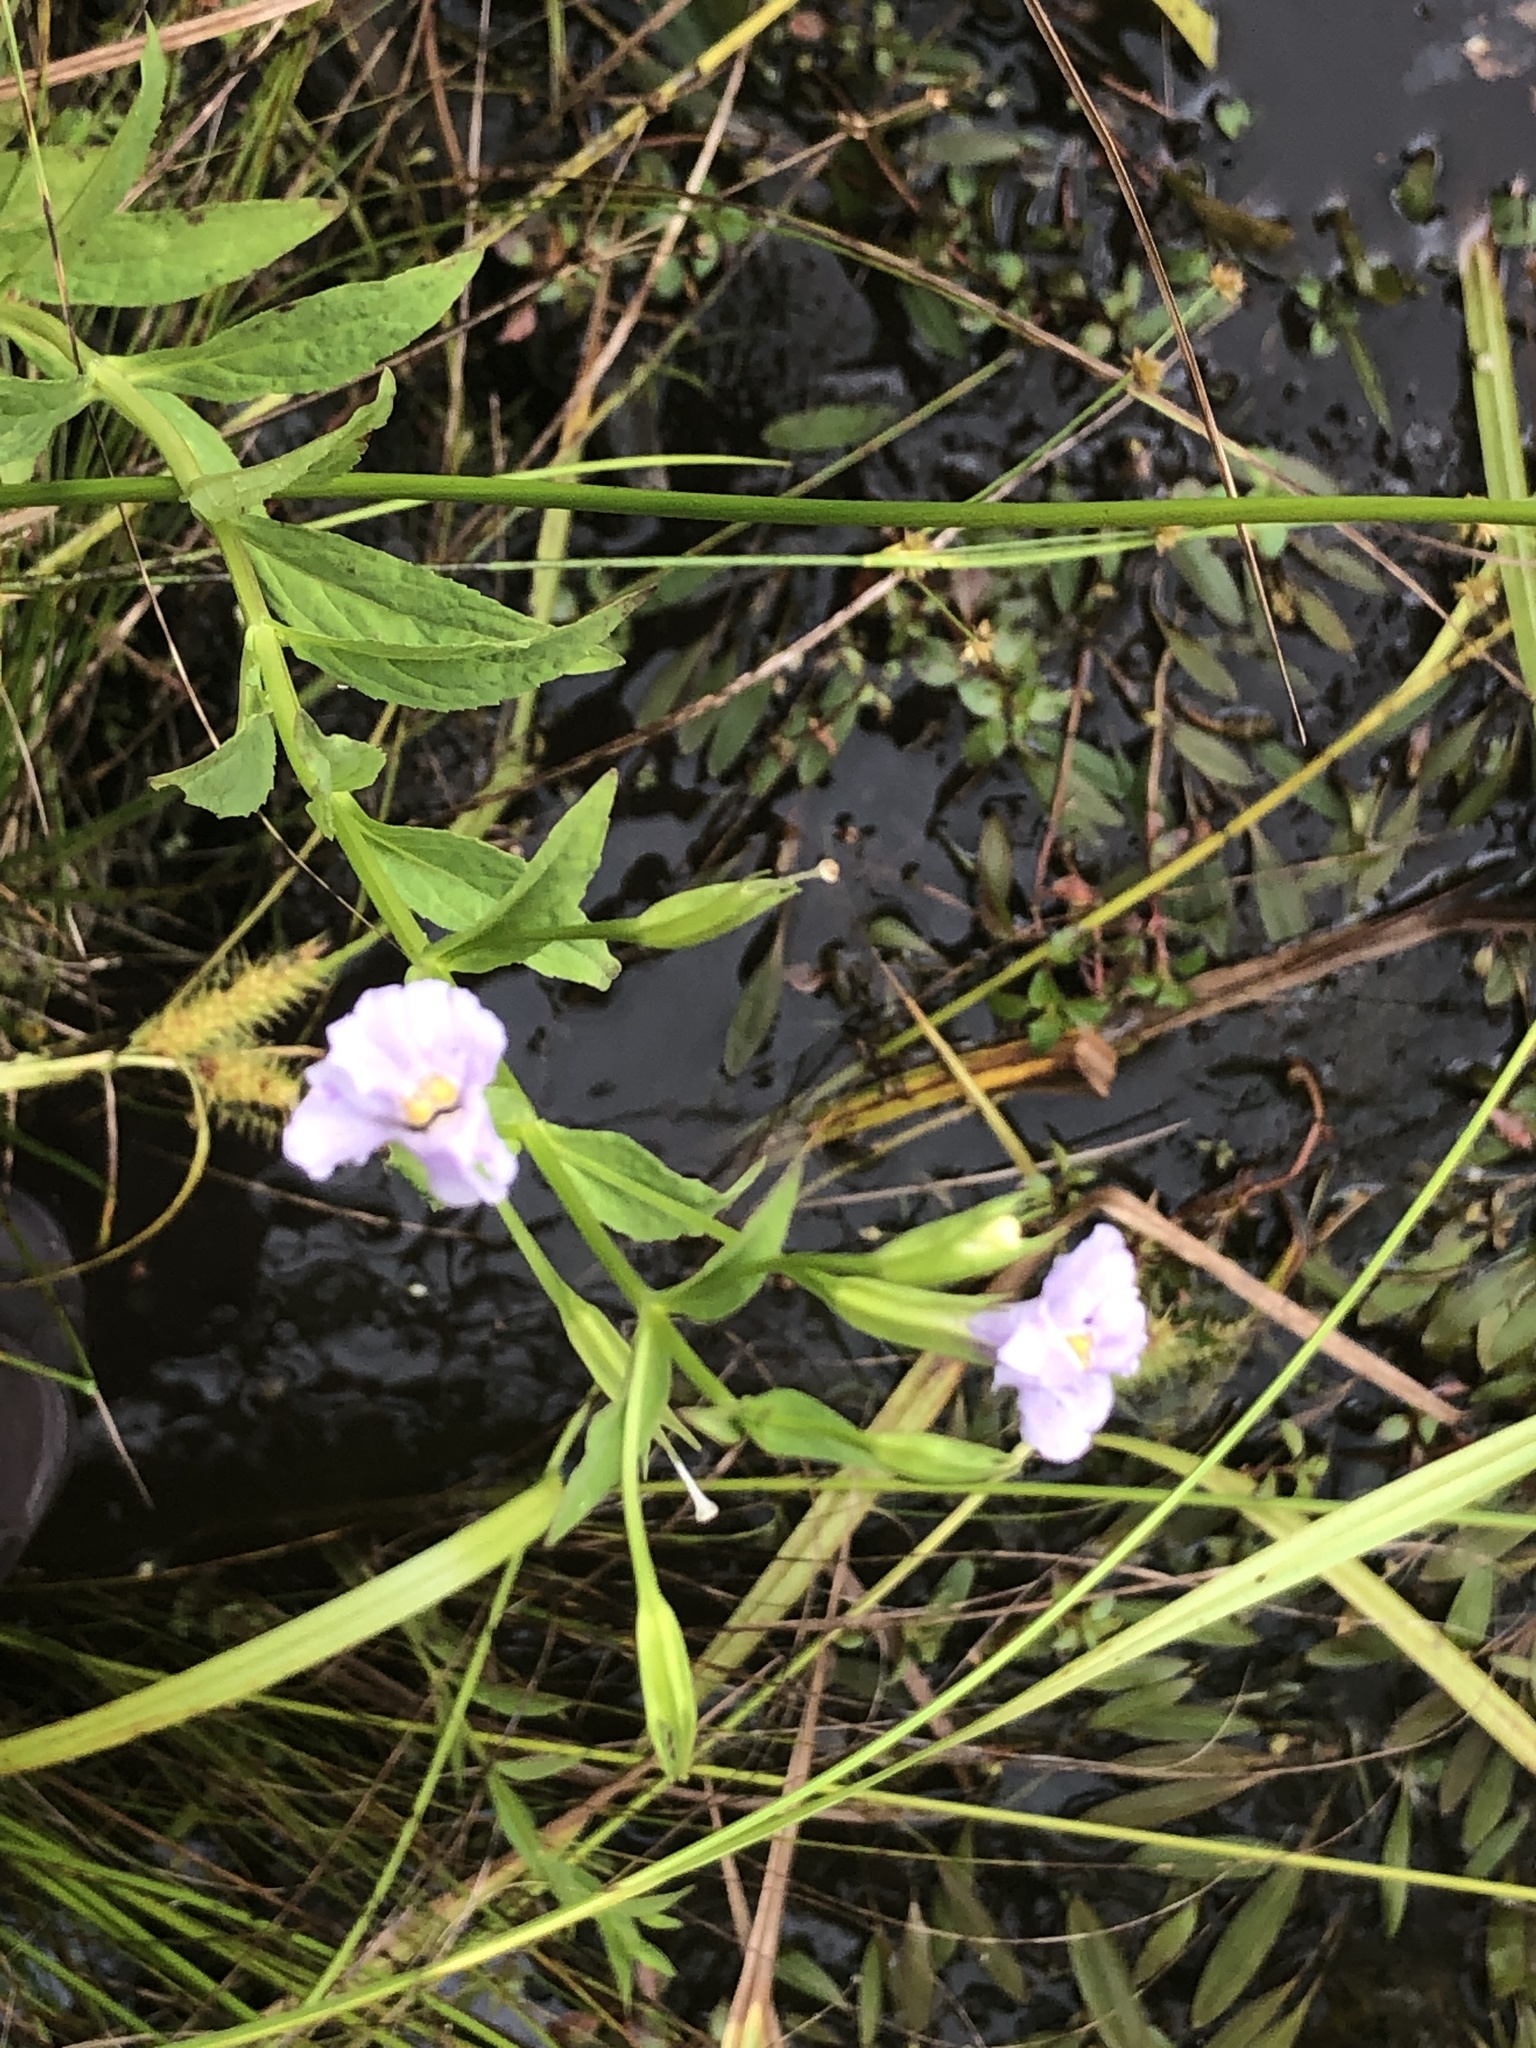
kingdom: Plantae
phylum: Tracheophyta
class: Magnoliopsida
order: Lamiales
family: Phrymaceae
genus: Mimulus
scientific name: Mimulus ringens
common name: Allegheny monkeyflower
